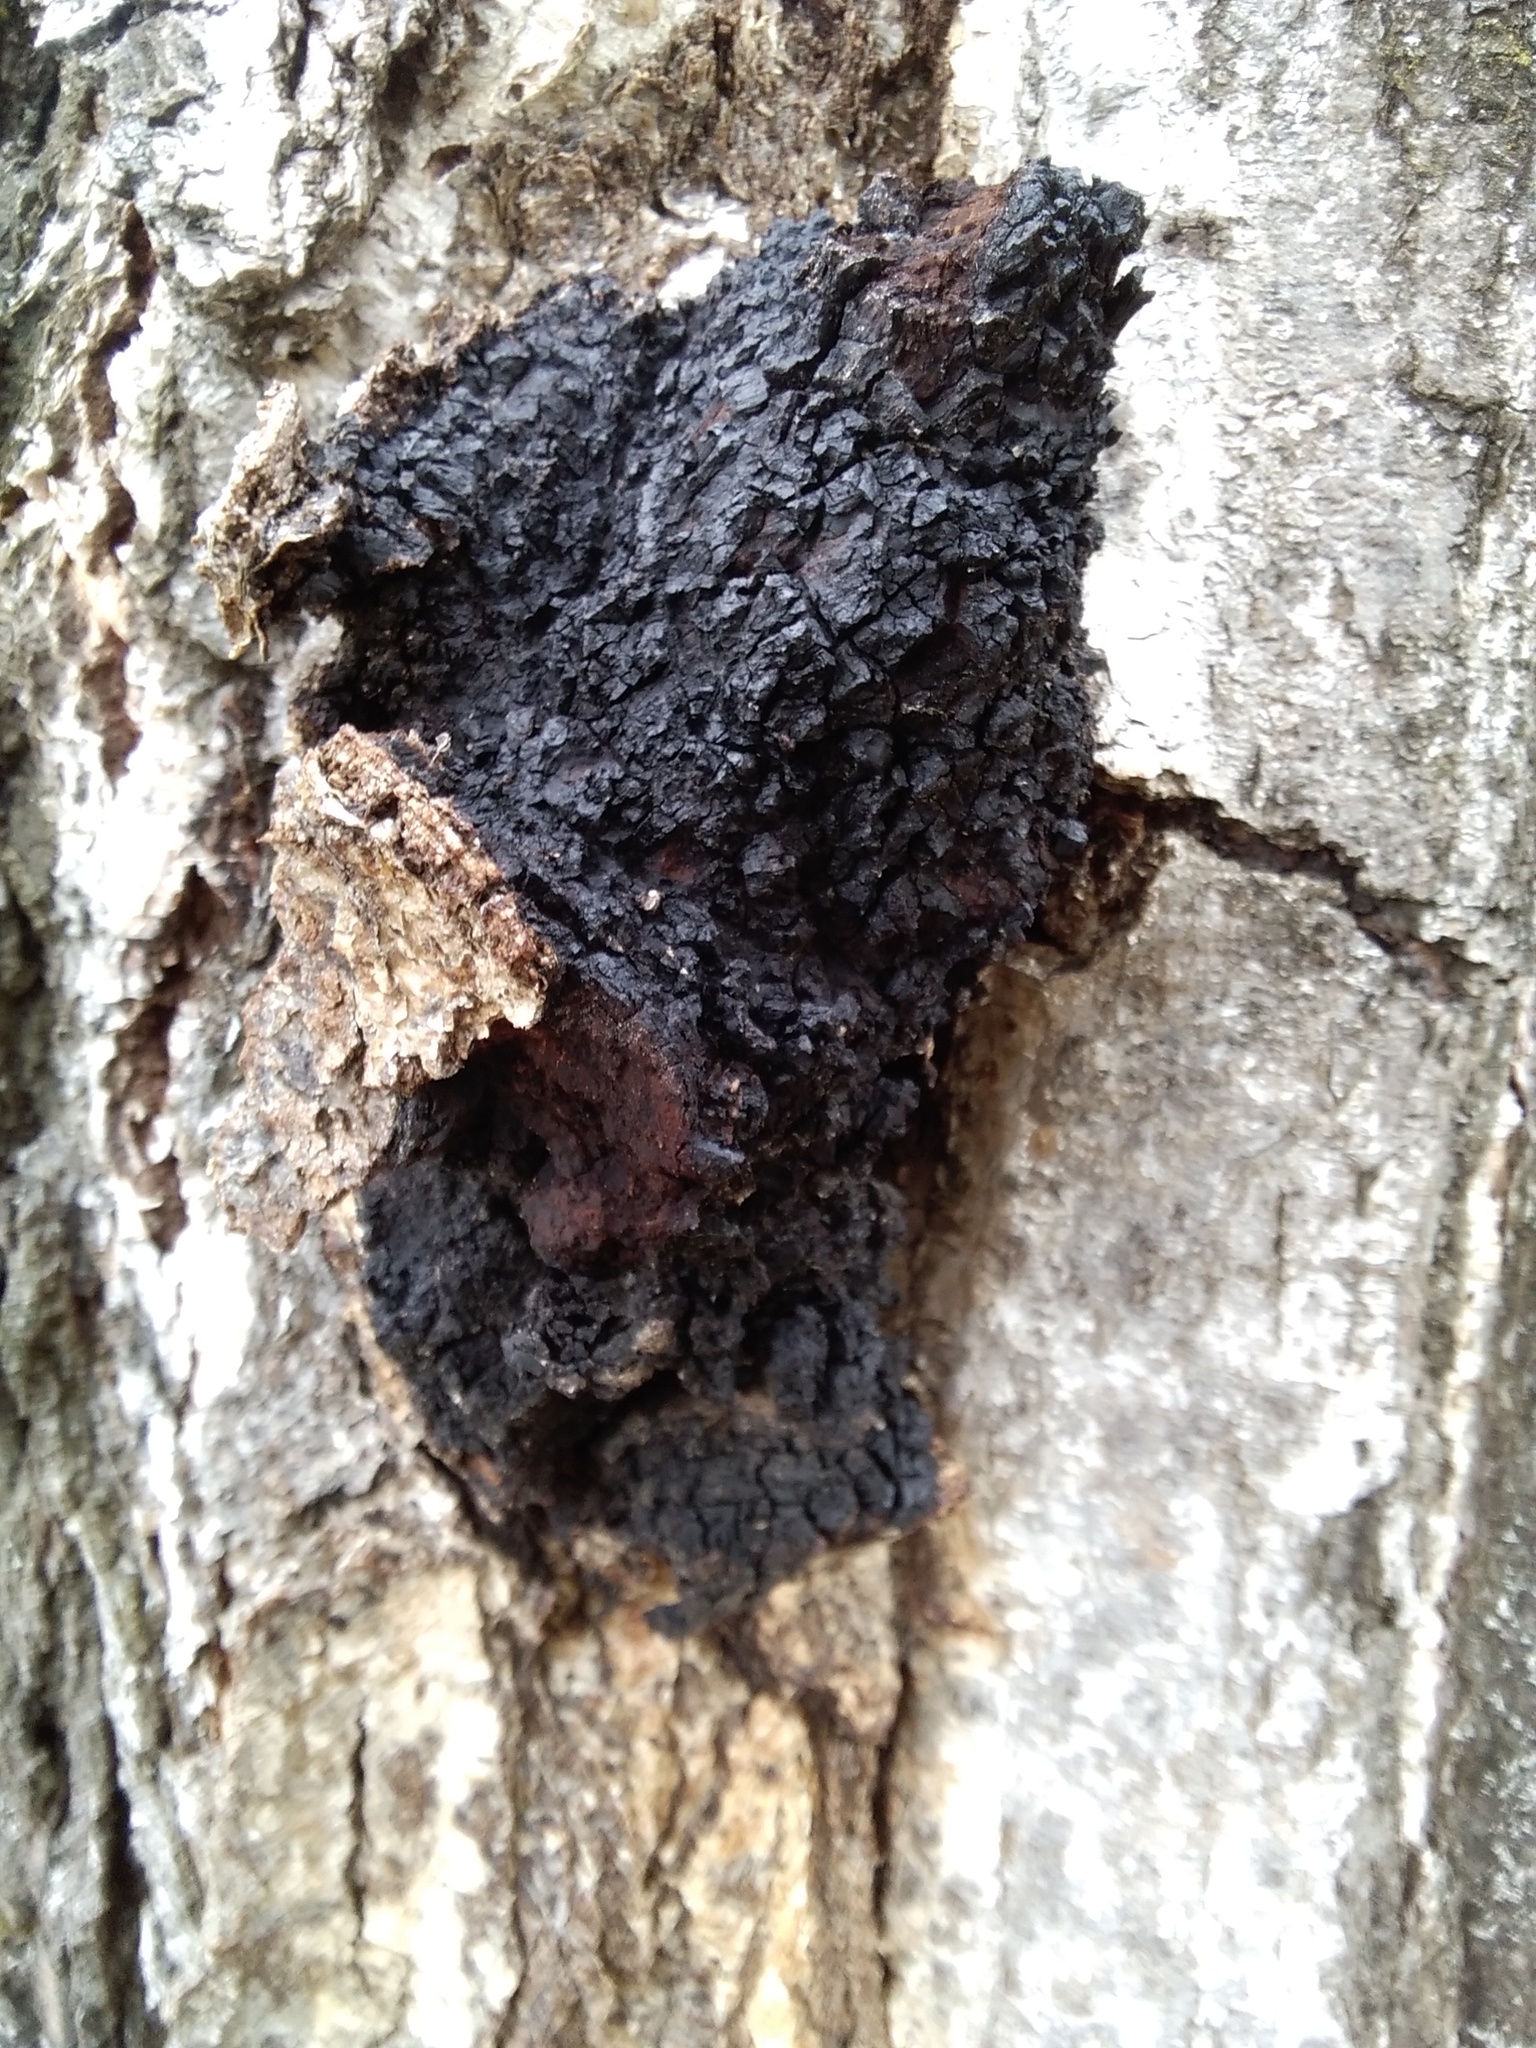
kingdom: Fungi
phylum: Basidiomycota
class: Agaricomycetes
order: Hymenochaetales
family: Hymenochaetaceae
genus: Inonotus
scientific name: Inonotus obliquus
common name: Chaga
